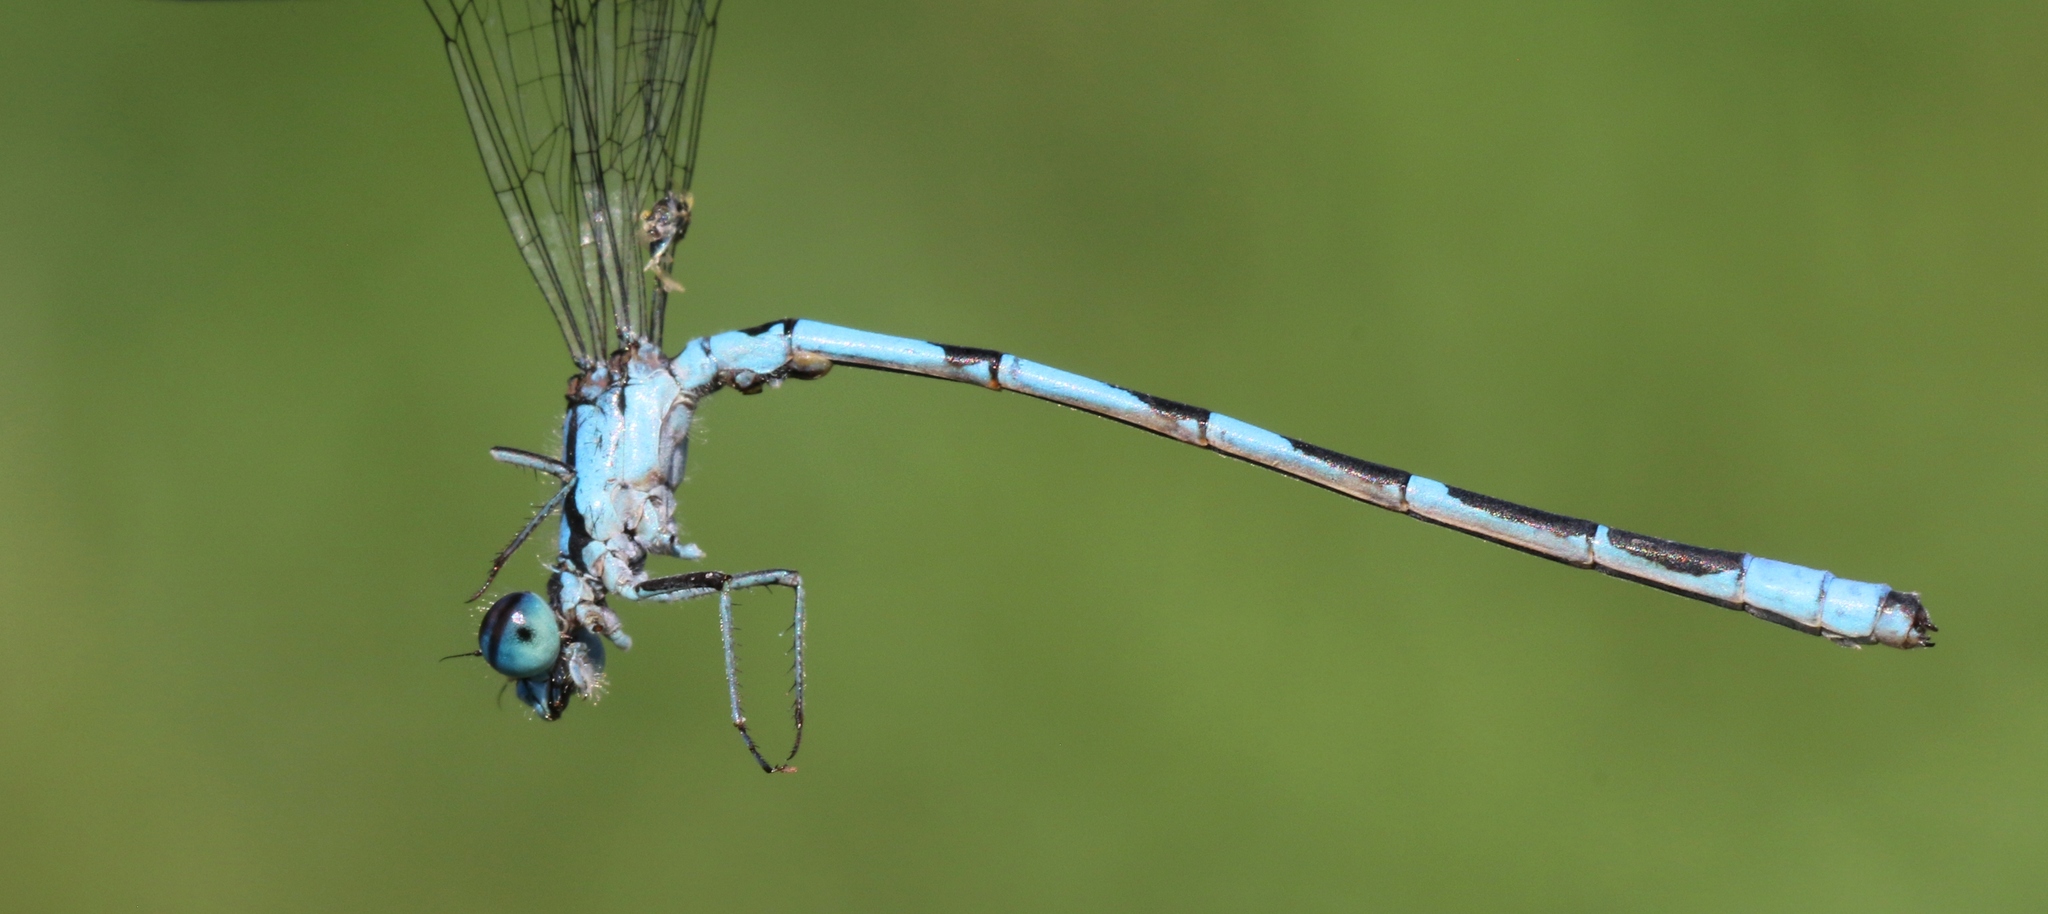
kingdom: Animalia
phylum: Arthropoda
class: Insecta
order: Odonata
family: Coenagrionidae
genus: Enallagma
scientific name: Enallagma hageni
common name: Hagen's bluet
